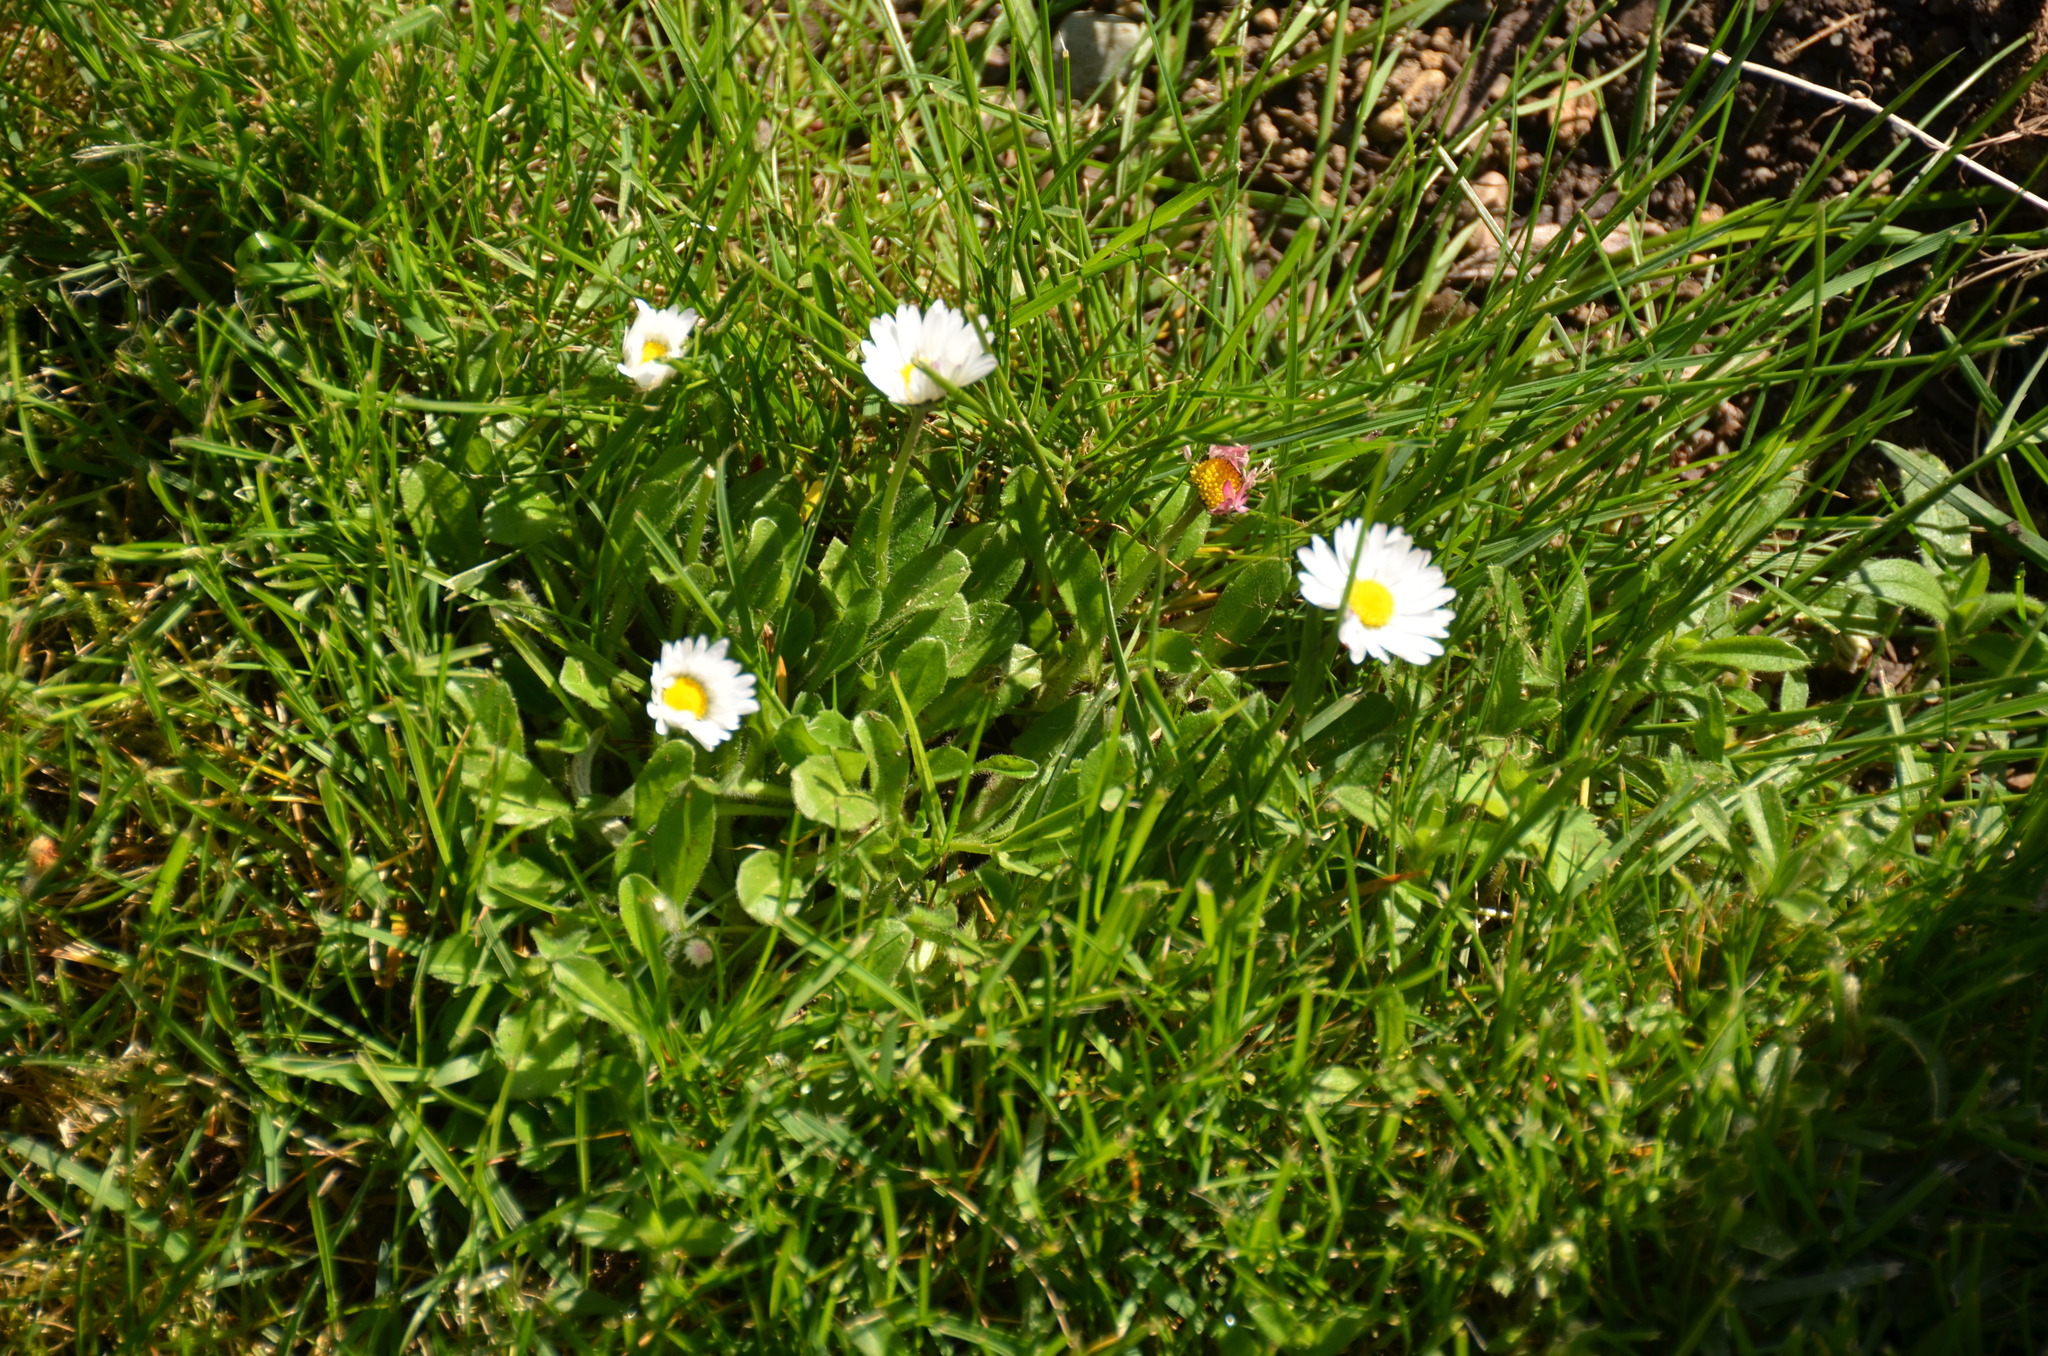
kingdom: Plantae
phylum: Tracheophyta
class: Magnoliopsida
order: Asterales
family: Asteraceae
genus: Bellis
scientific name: Bellis perennis
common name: Lawndaisy
